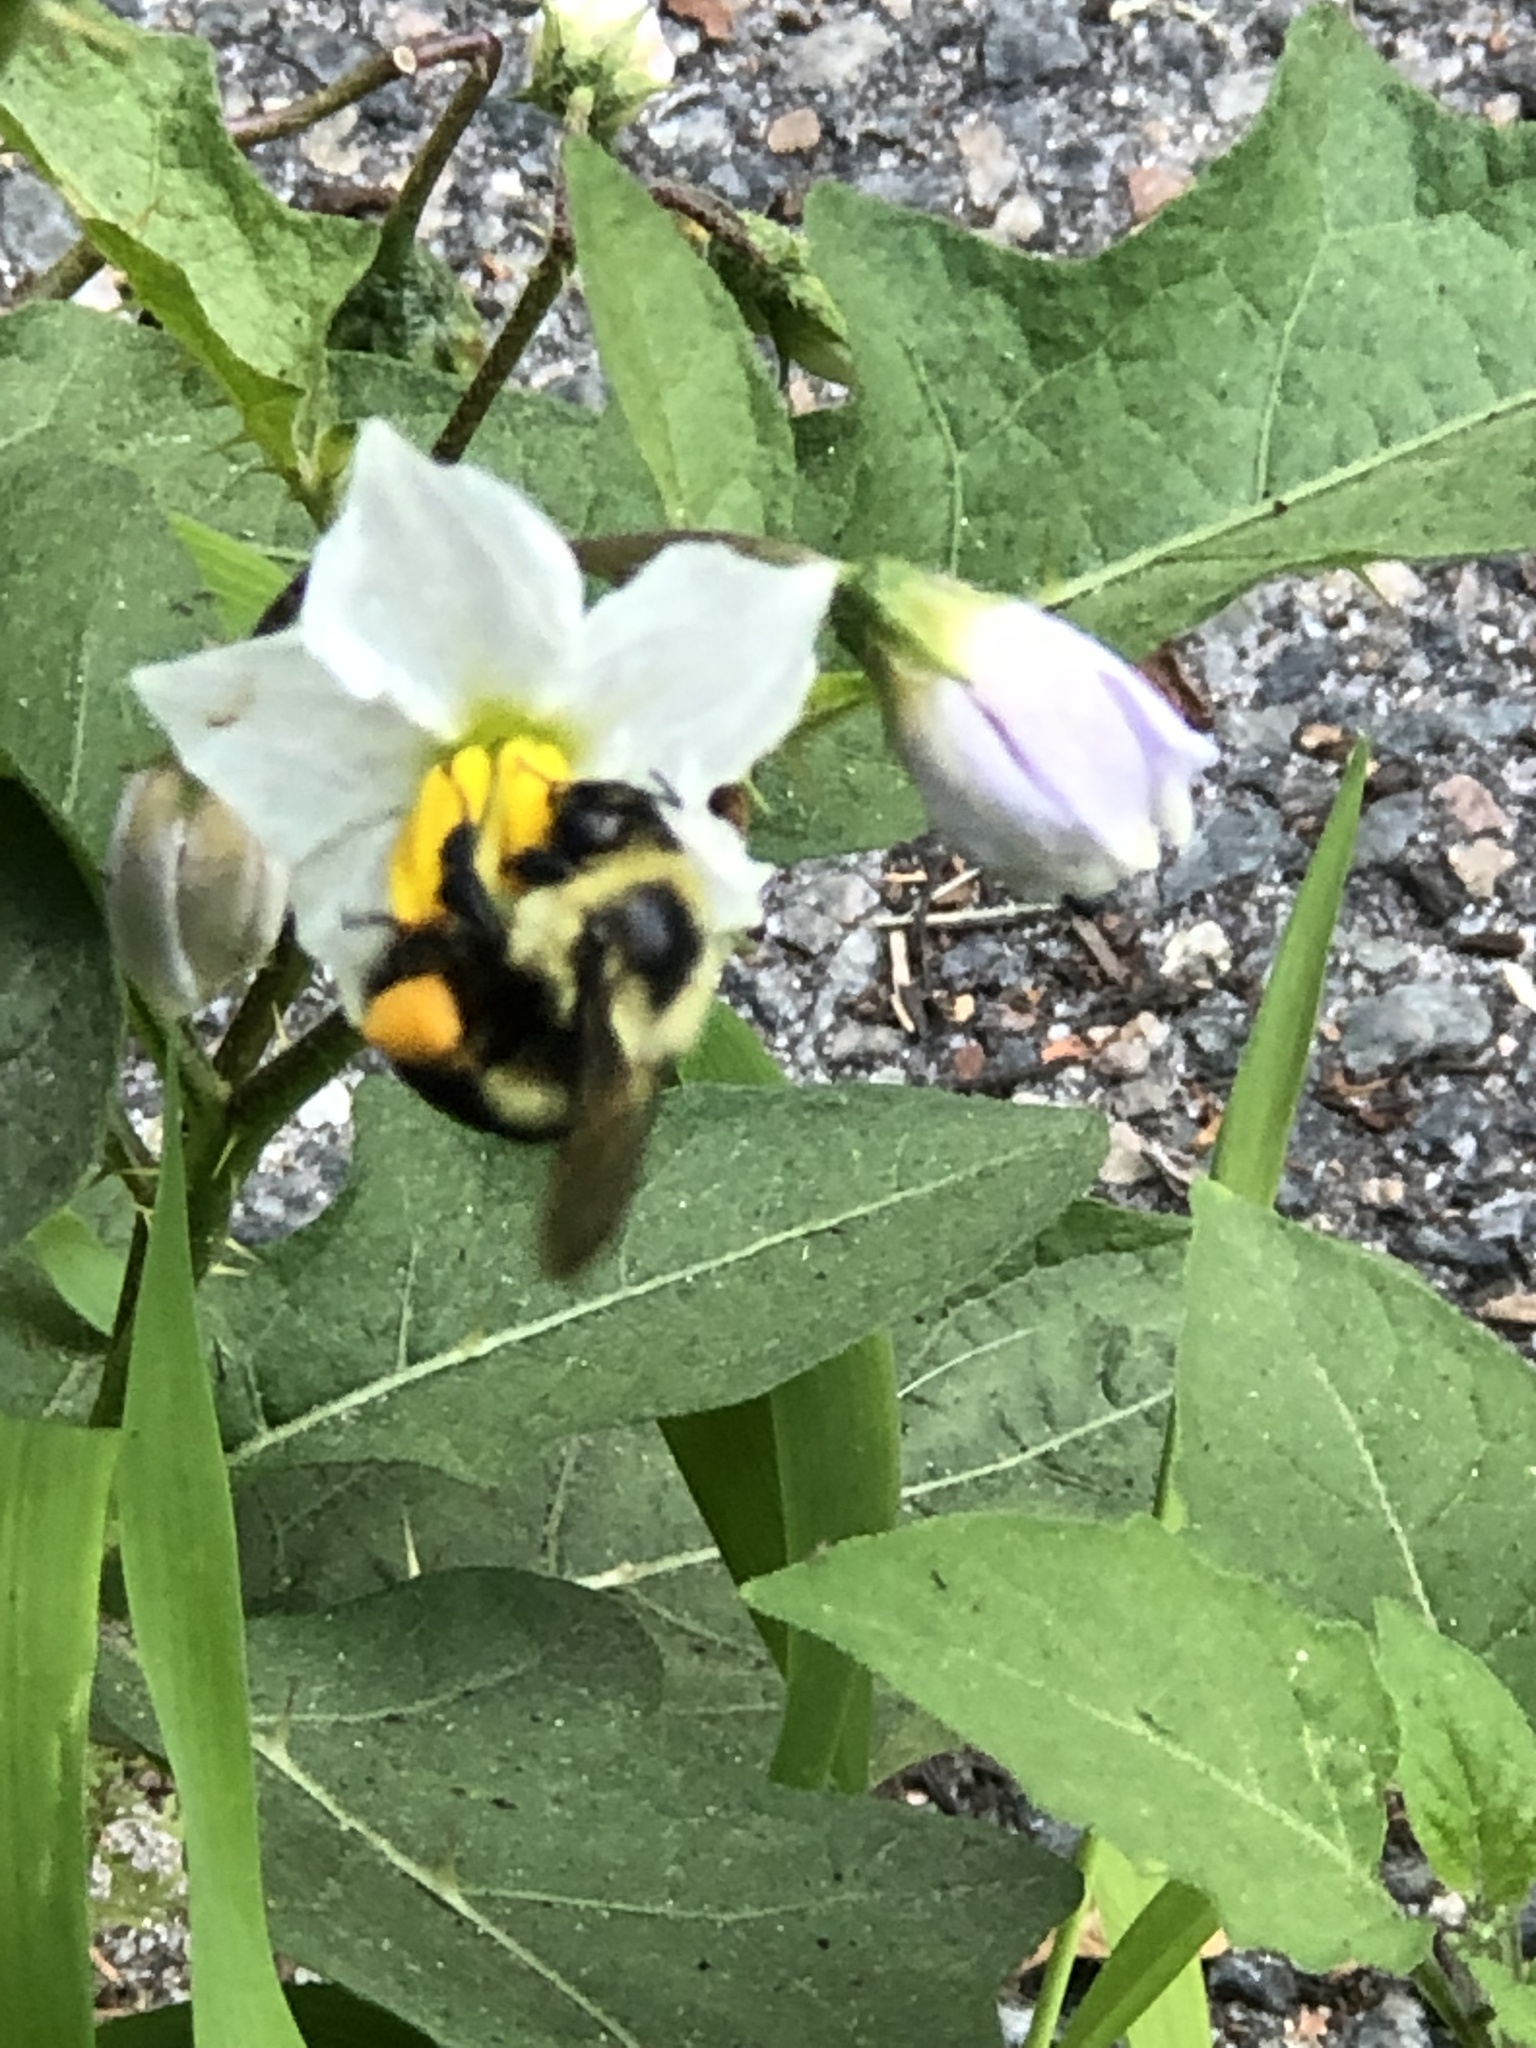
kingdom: Animalia
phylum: Arthropoda
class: Insecta
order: Hymenoptera
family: Apidae
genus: Bombus
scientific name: Bombus impatiens
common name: Common eastern bumble bee
